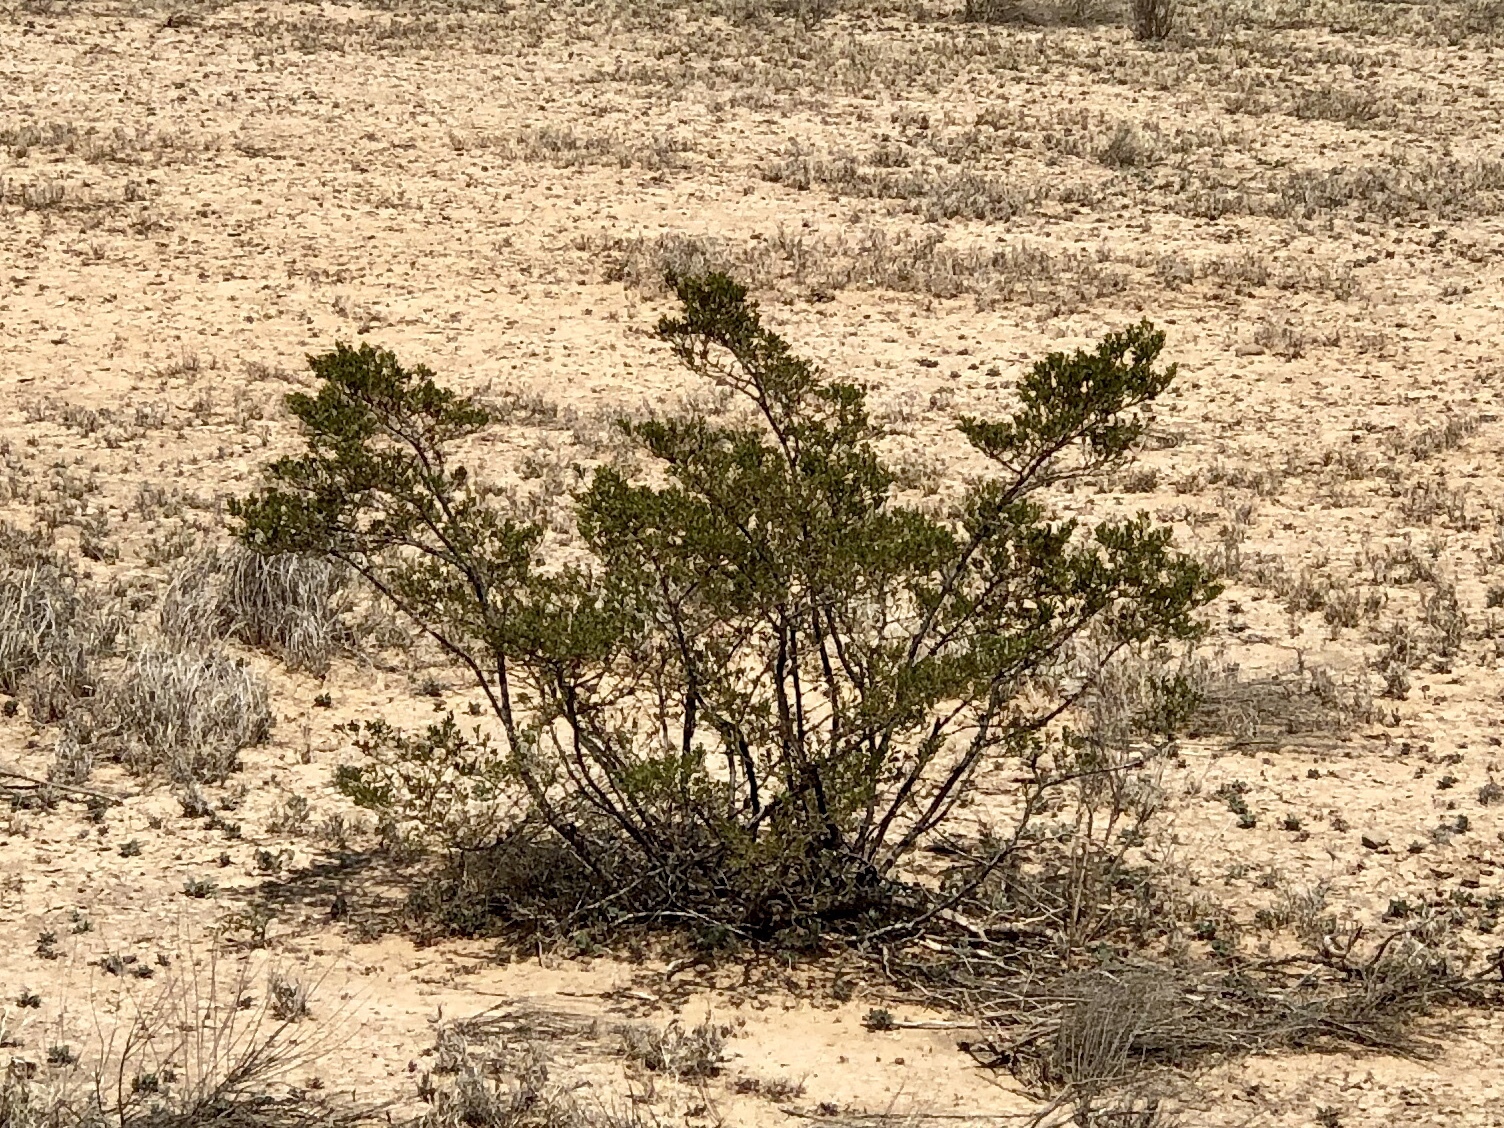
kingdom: Plantae
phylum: Tracheophyta
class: Magnoliopsida
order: Zygophyllales
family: Zygophyllaceae
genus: Larrea
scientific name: Larrea tridentata
